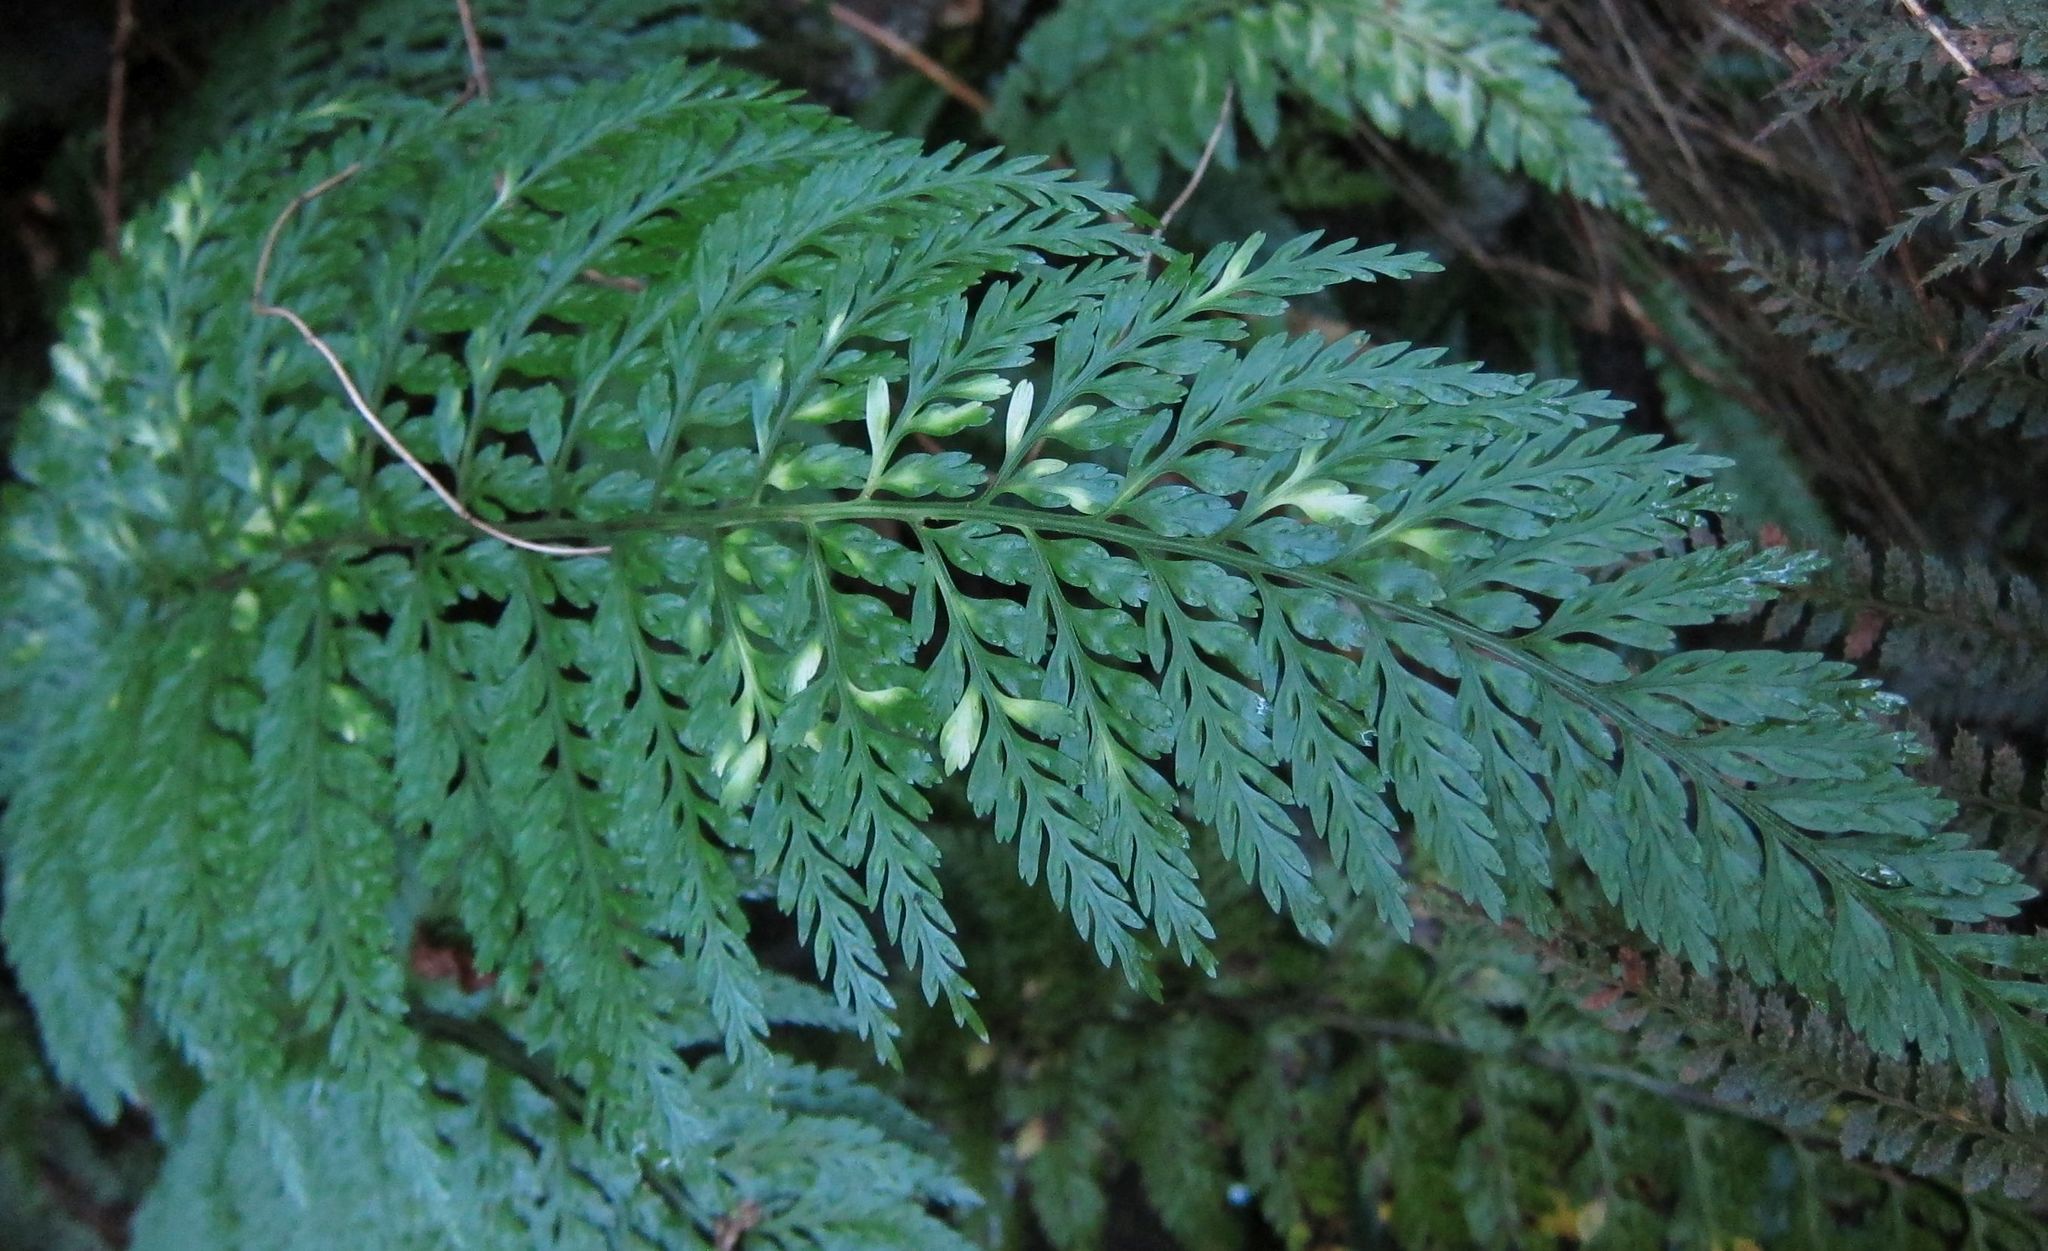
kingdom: Plantae
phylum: Tracheophyta
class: Polypodiopsida
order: Polypodiales
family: Aspleniaceae
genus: Asplenium
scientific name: Asplenium
